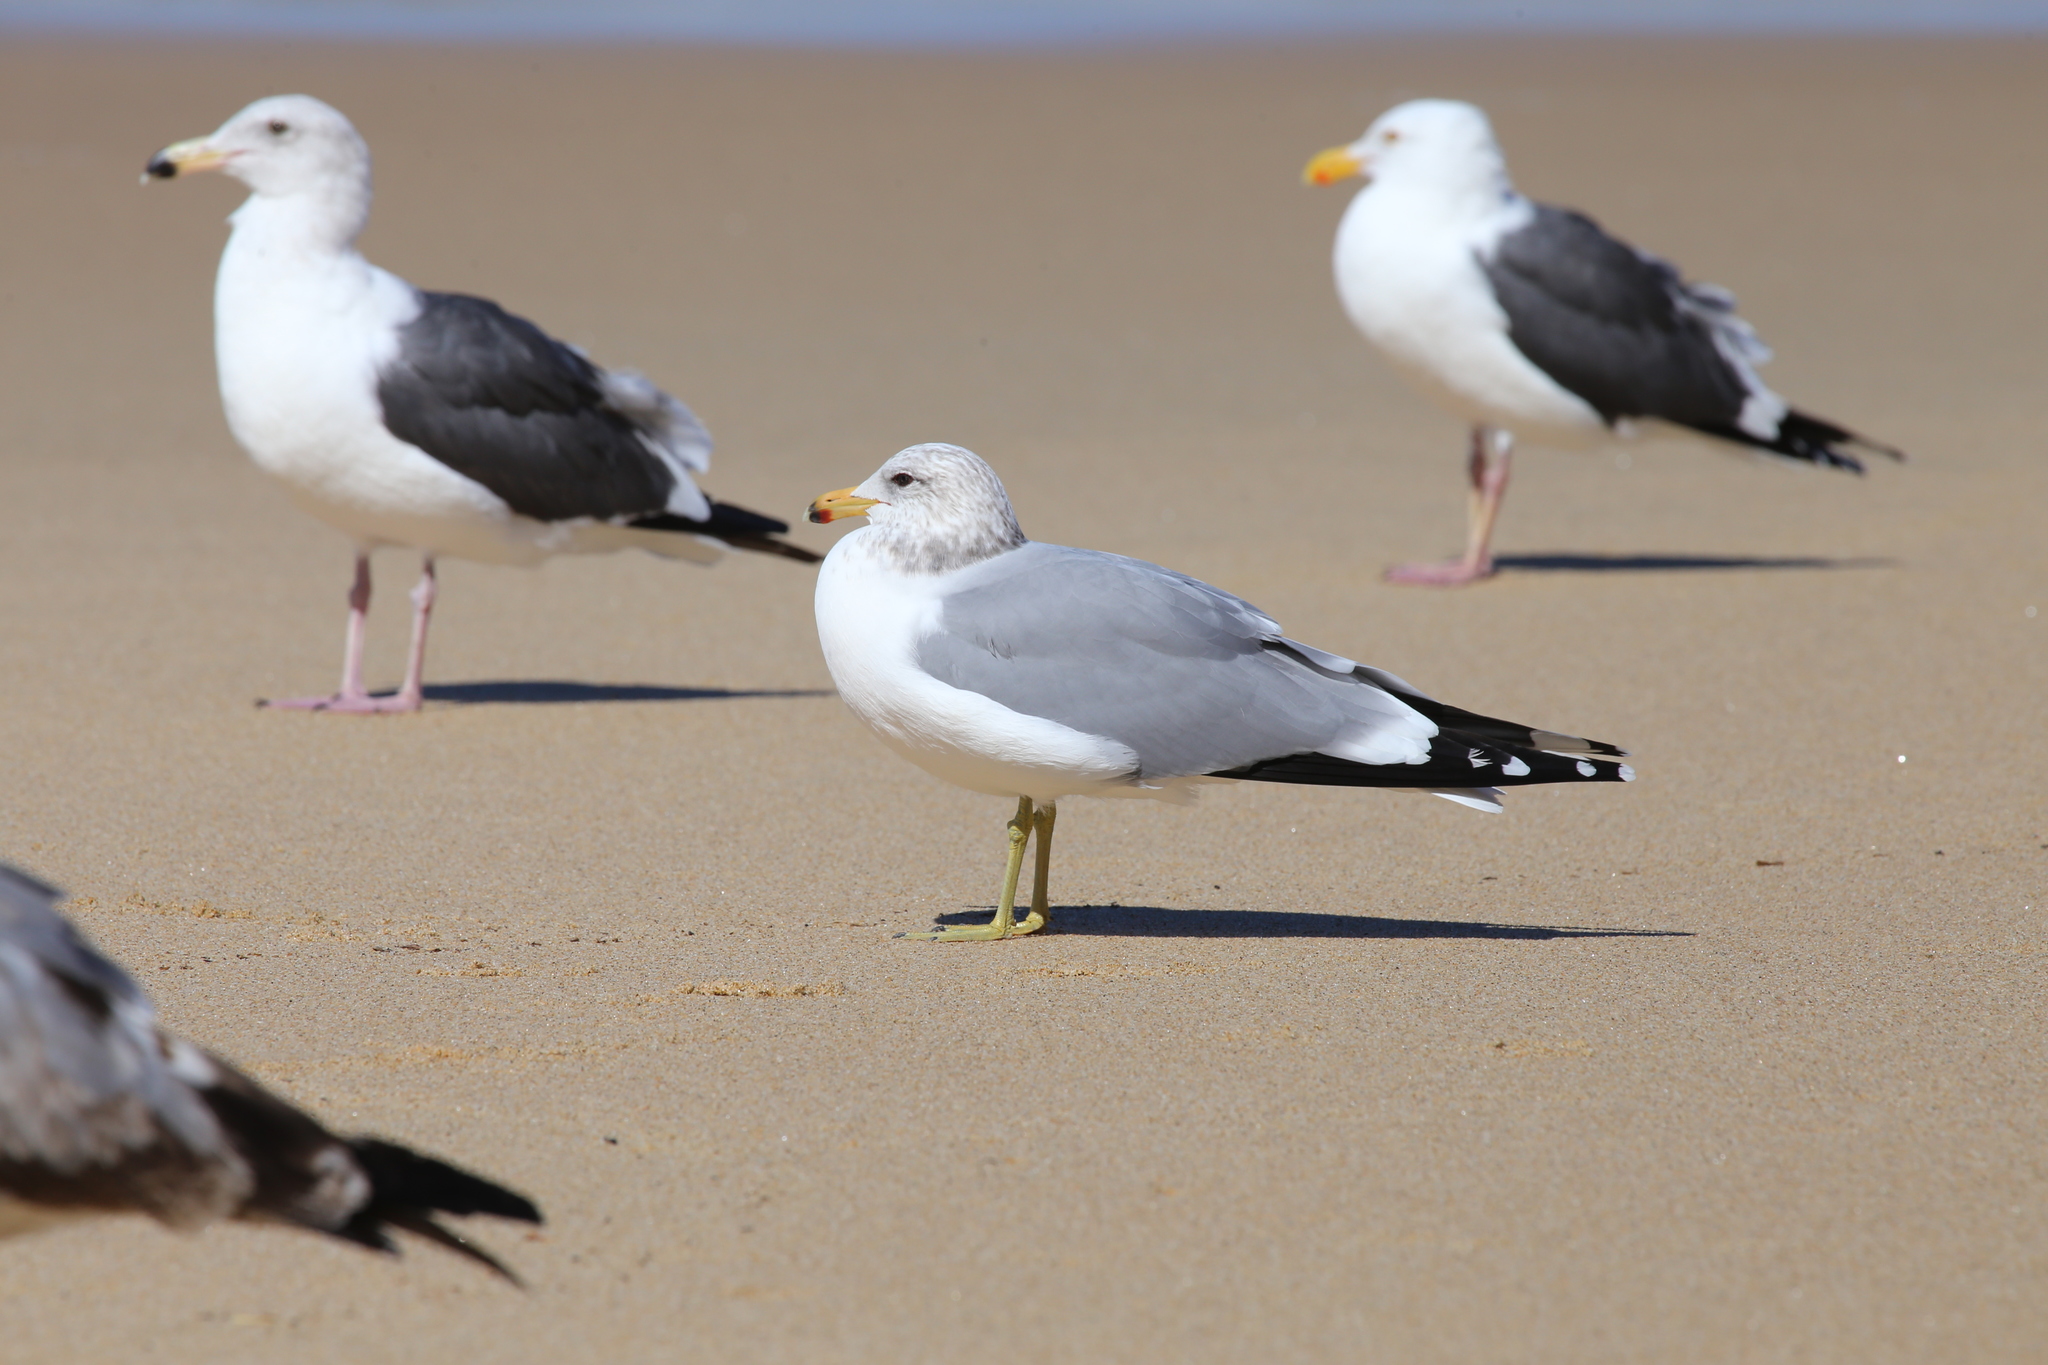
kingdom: Animalia
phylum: Chordata
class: Aves
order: Charadriiformes
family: Laridae
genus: Larus
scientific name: Larus californicus
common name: California gull
